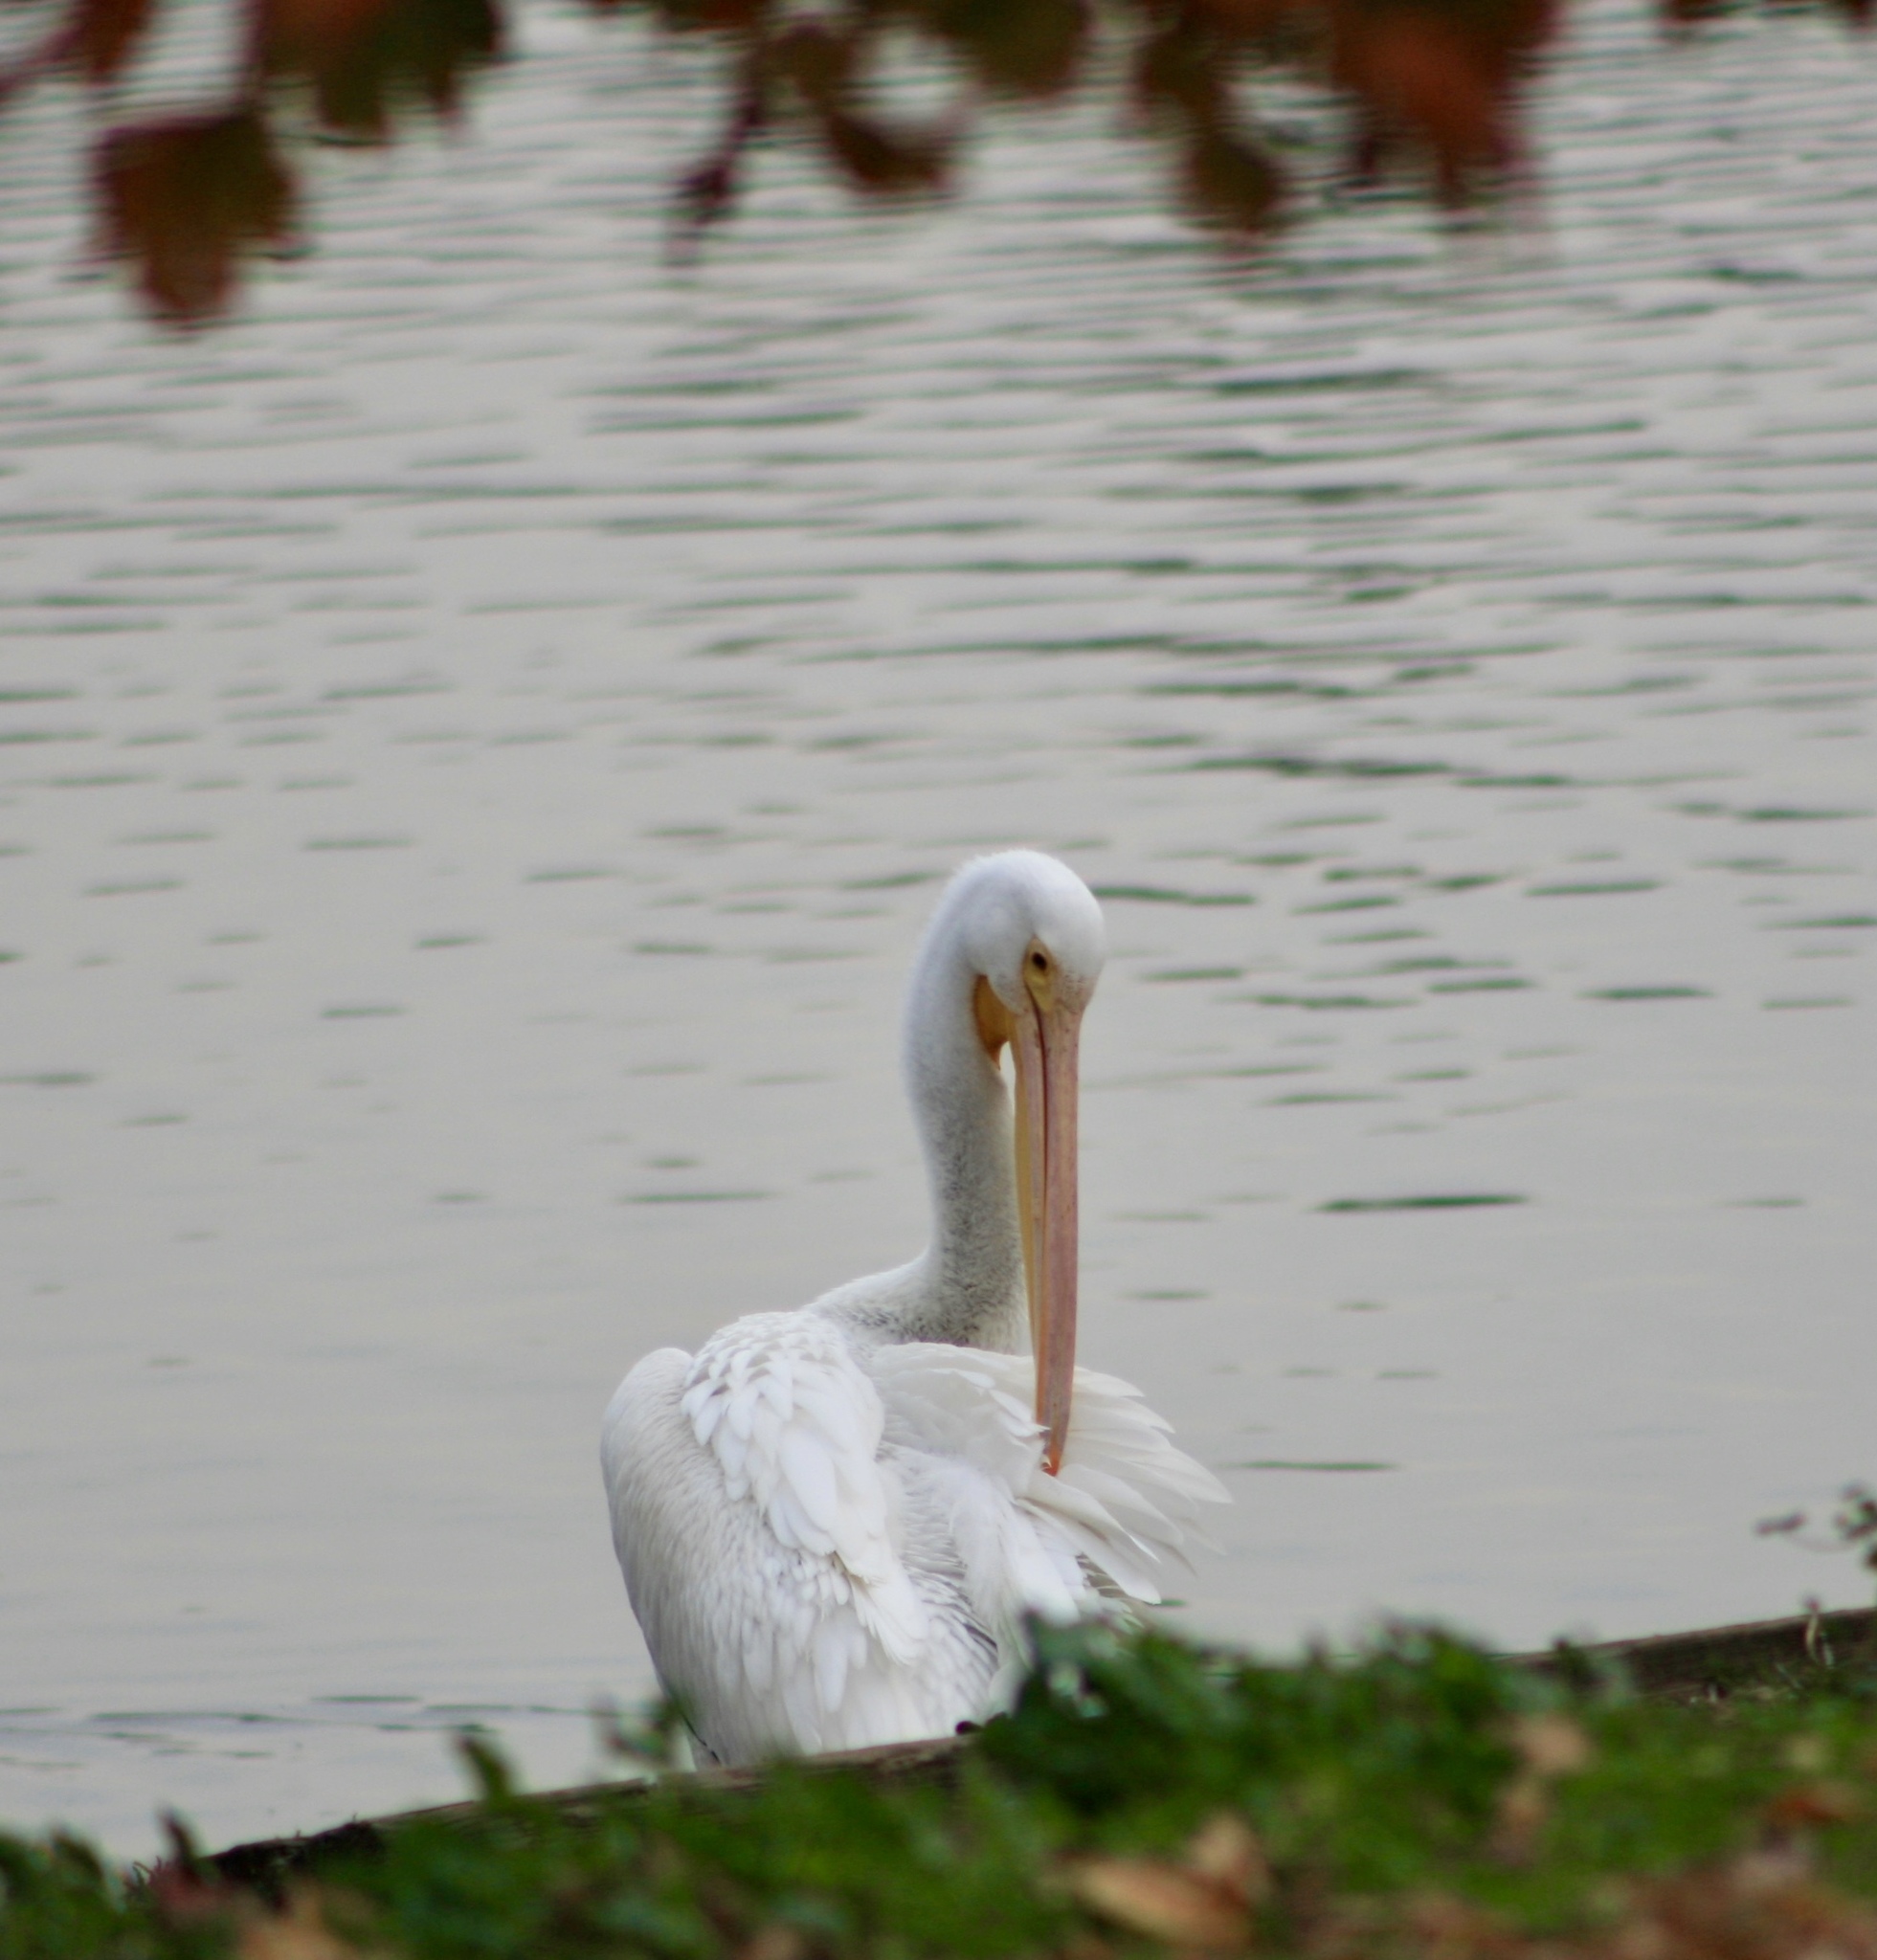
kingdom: Animalia
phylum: Chordata
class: Aves
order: Pelecaniformes
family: Pelecanidae
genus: Pelecanus
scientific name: Pelecanus erythrorhynchos
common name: American white pelican
